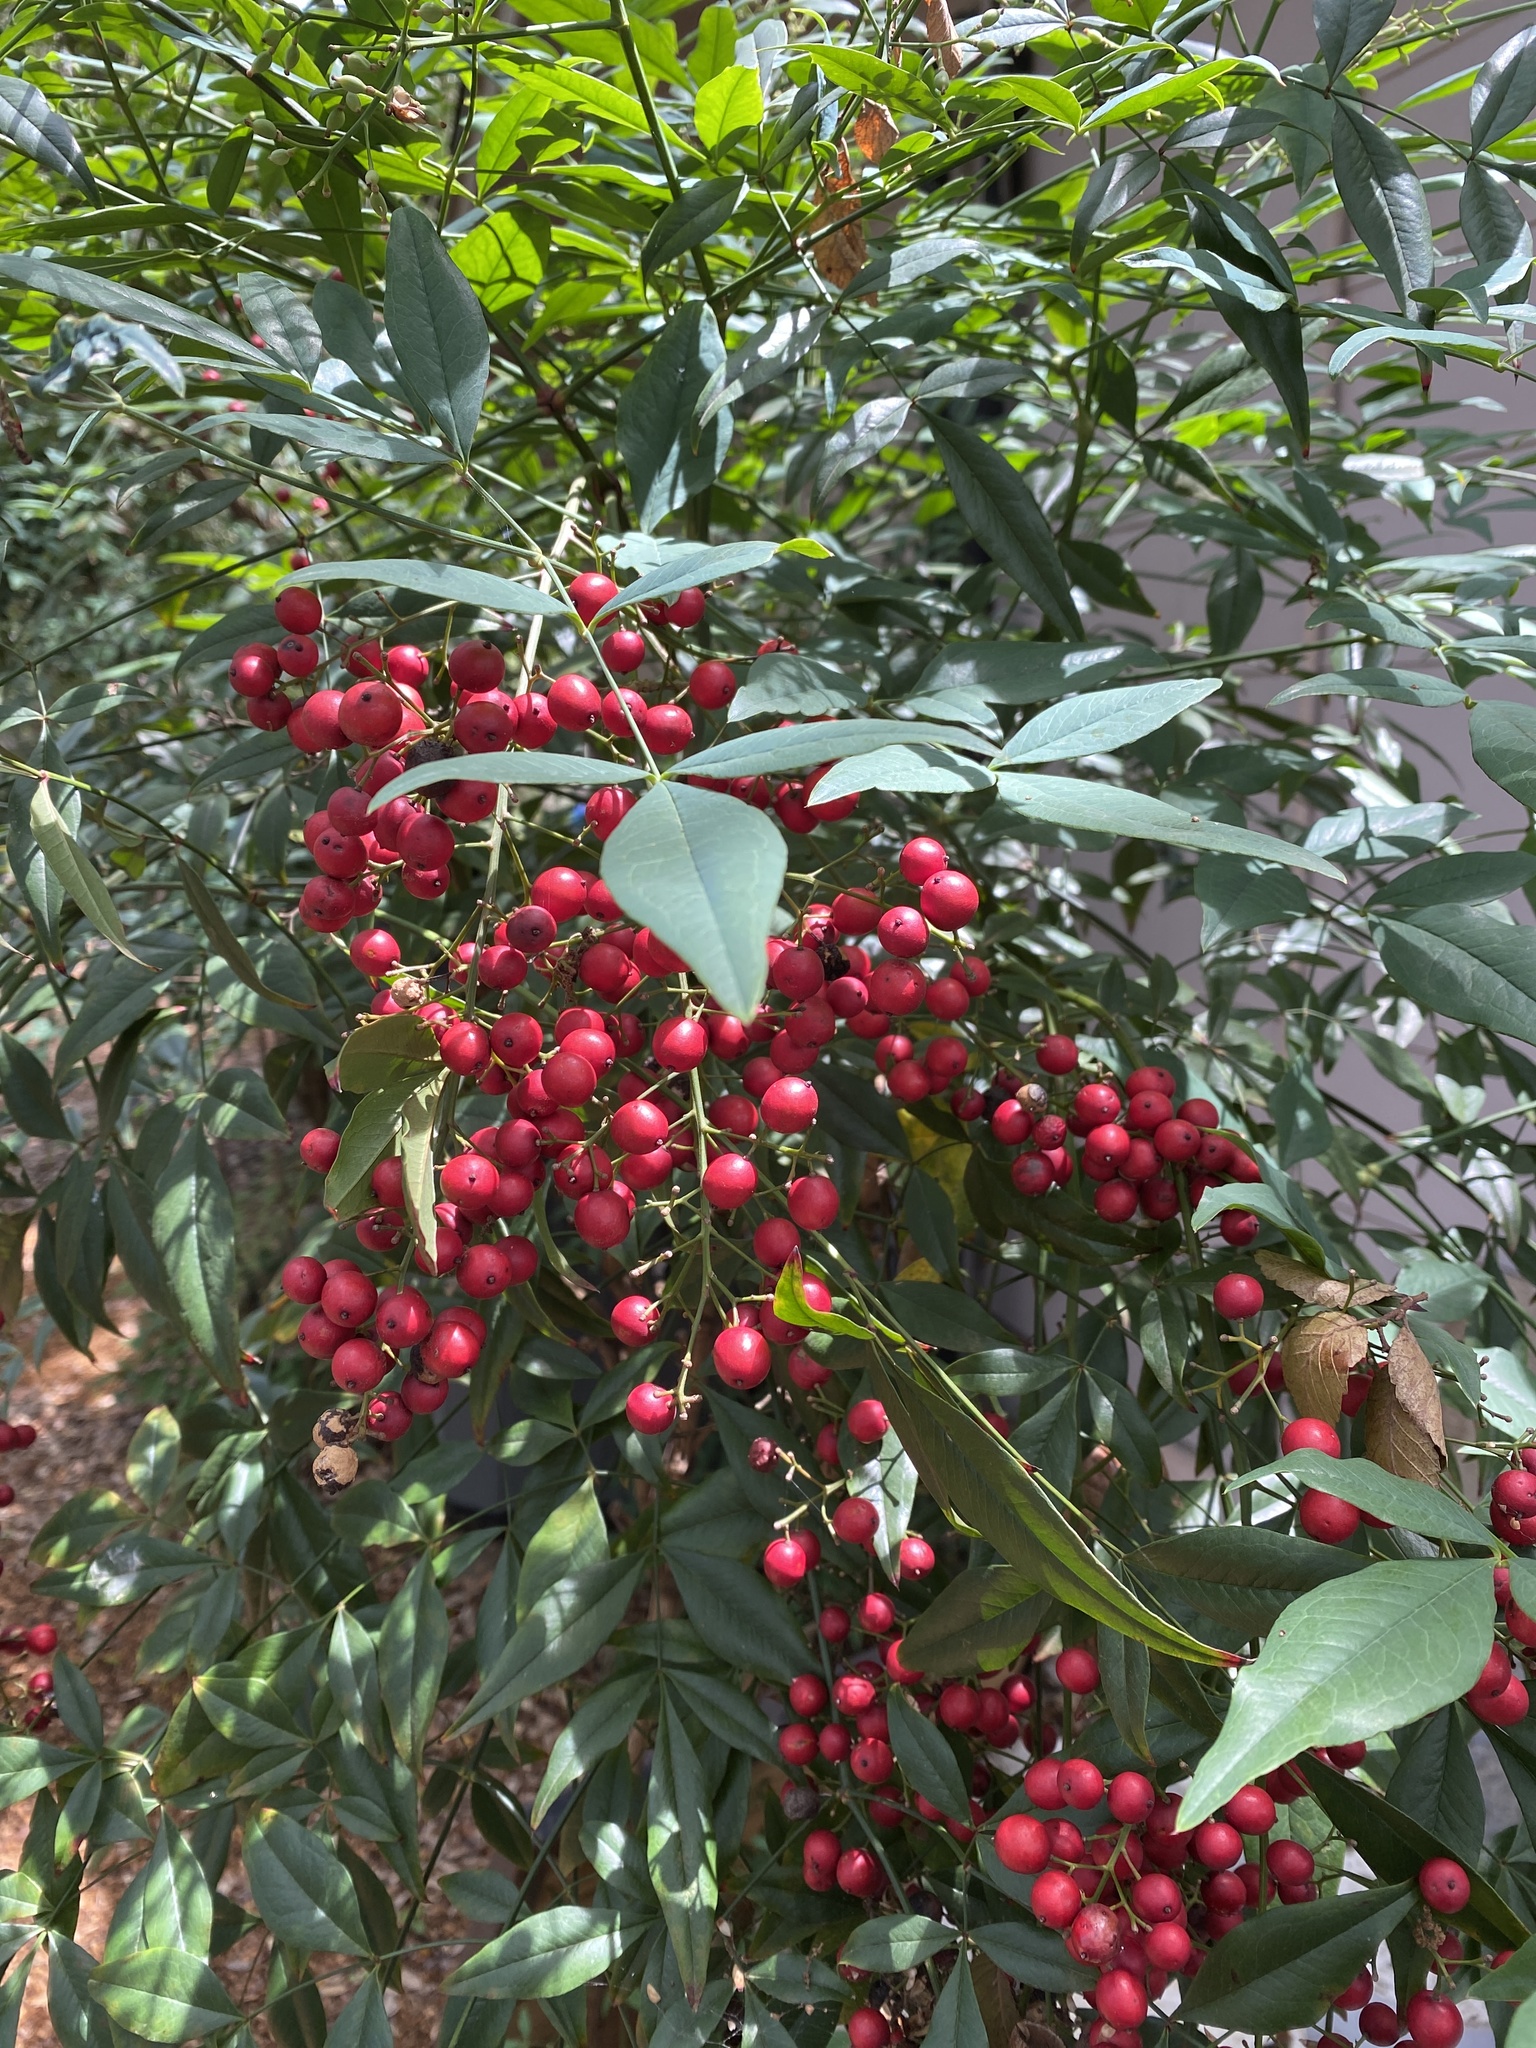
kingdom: Plantae
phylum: Tracheophyta
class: Magnoliopsida
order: Ranunculales
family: Berberidaceae
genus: Nandina
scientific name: Nandina domestica
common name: Sacred bamboo
